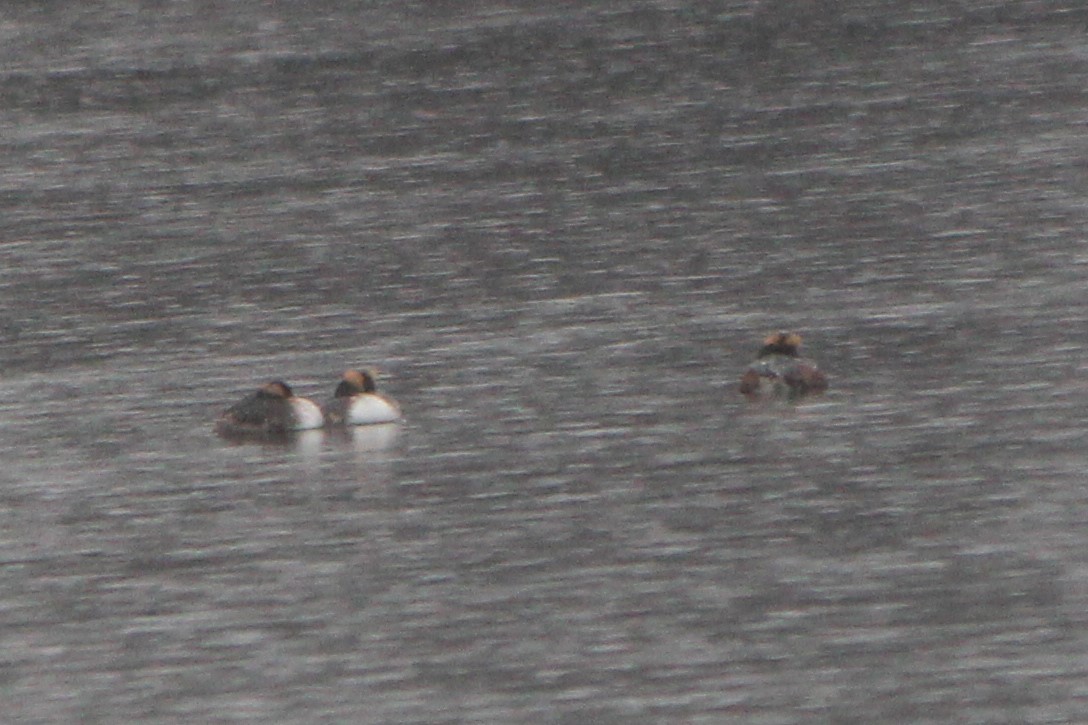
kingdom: Animalia
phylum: Chordata
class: Aves
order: Podicipediformes
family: Podicipedidae
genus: Podiceps
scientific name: Podiceps auritus
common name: Horned grebe
